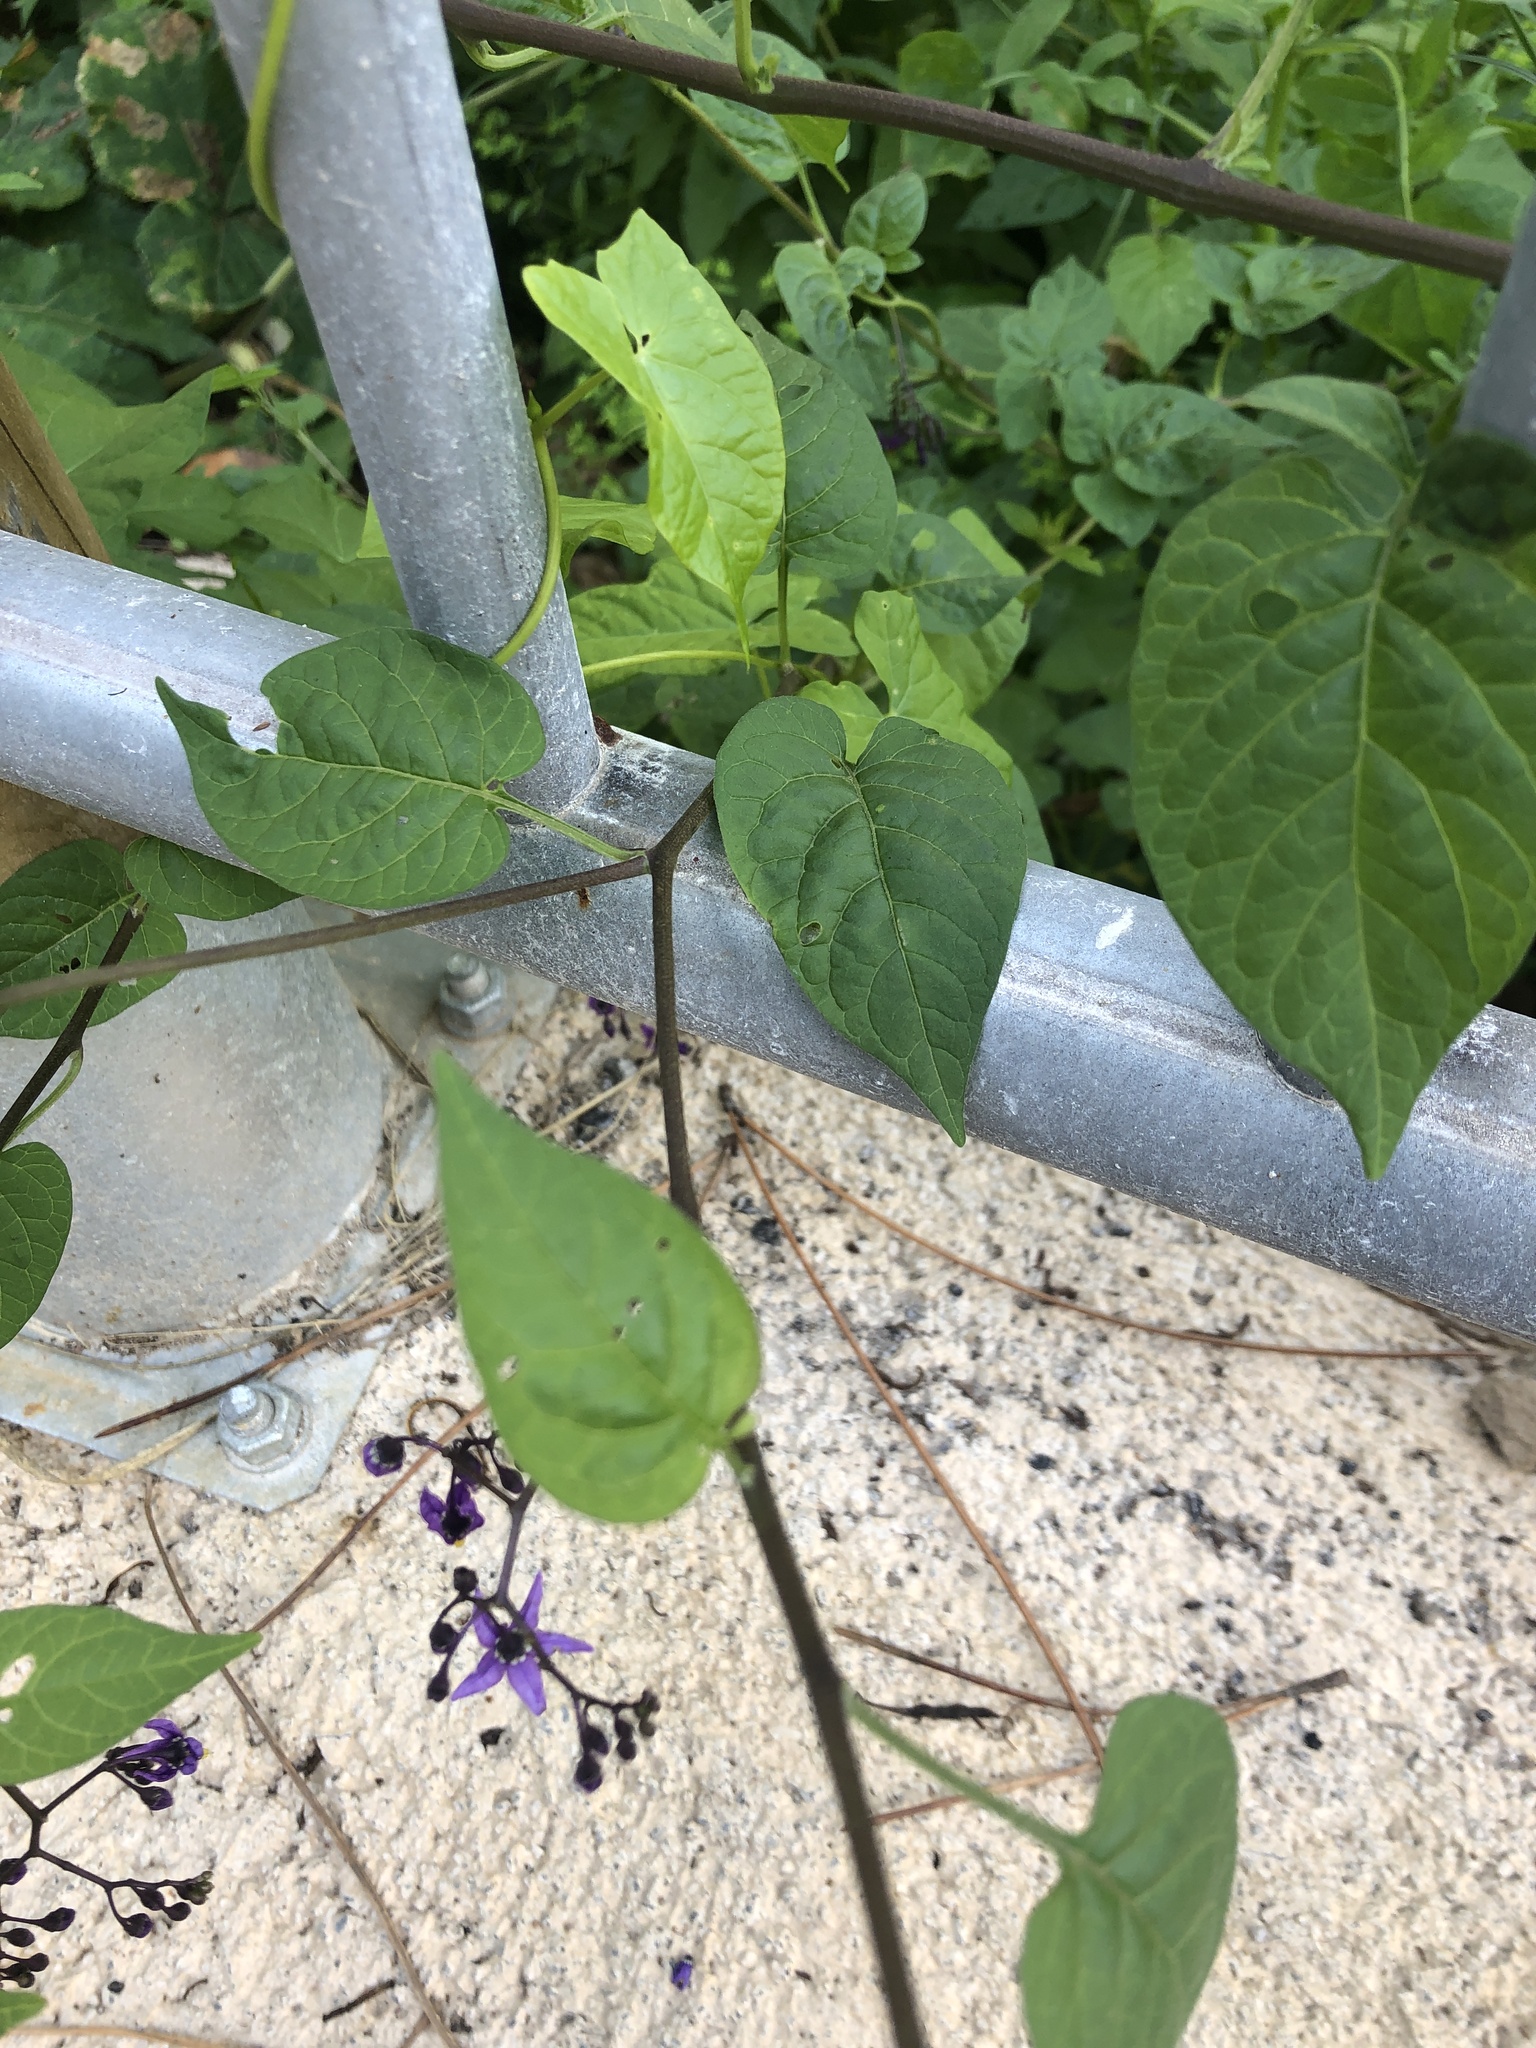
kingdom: Plantae
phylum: Tracheophyta
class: Magnoliopsida
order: Solanales
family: Solanaceae
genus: Solanum
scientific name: Solanum dulcamara
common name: Climbing nightshade
